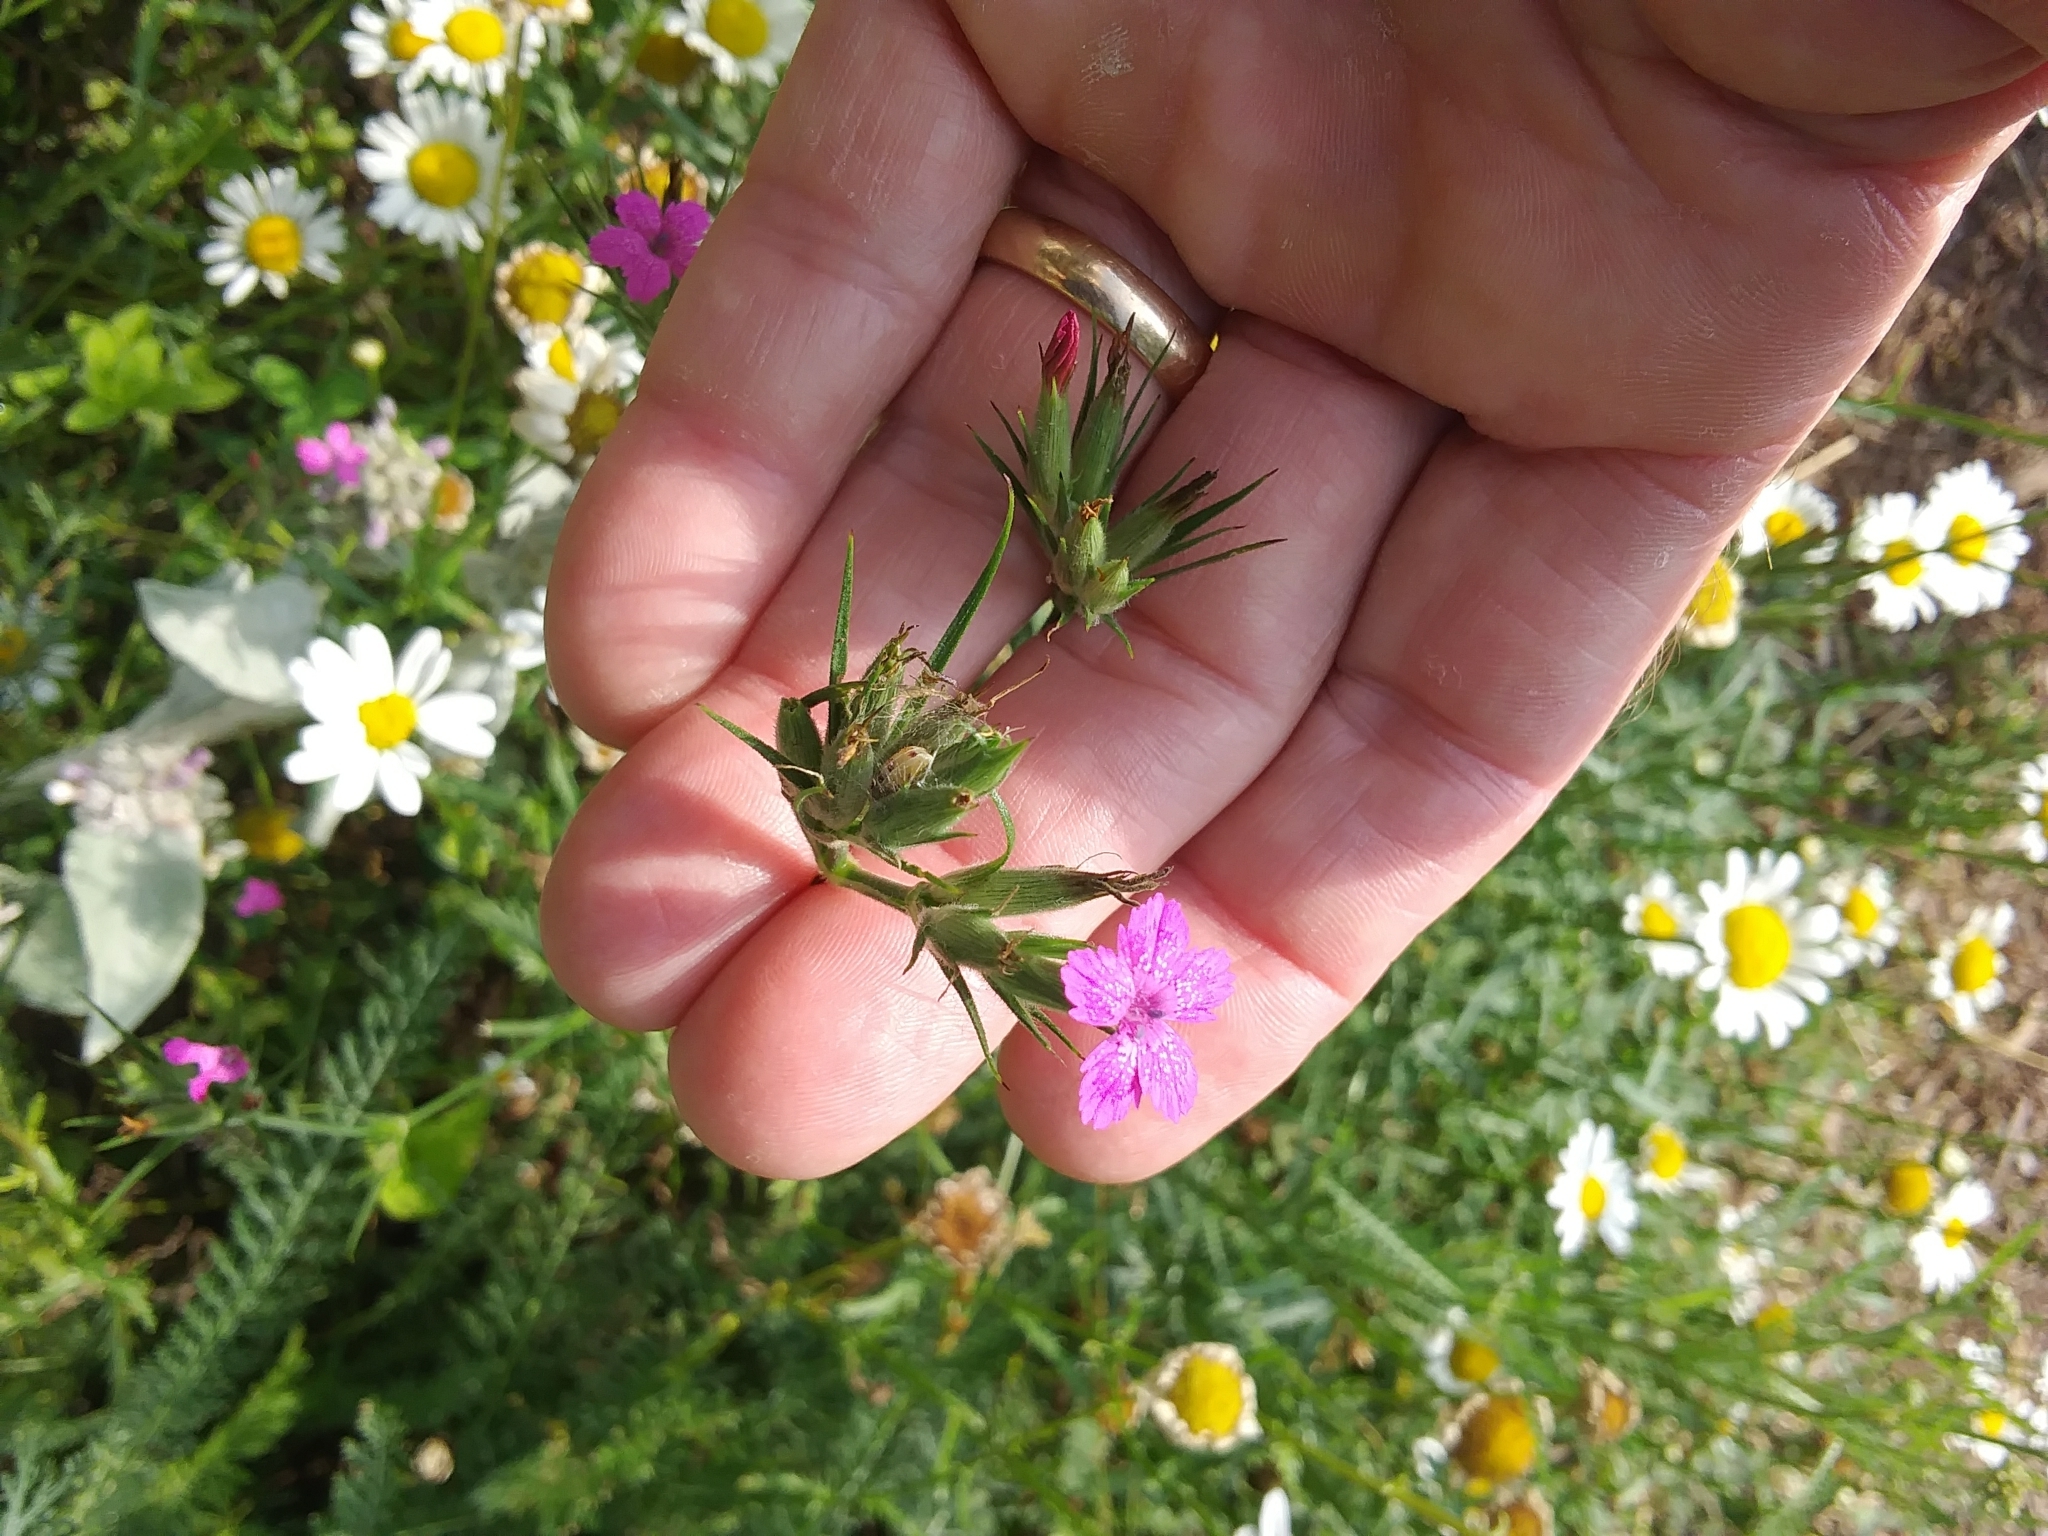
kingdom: Plantae
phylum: Tracheophyta
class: Magnoliopsida
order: Caryophyllales
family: Caryophyllaceae
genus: Dianthus
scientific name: Dianthus armeria
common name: Deptford pink
